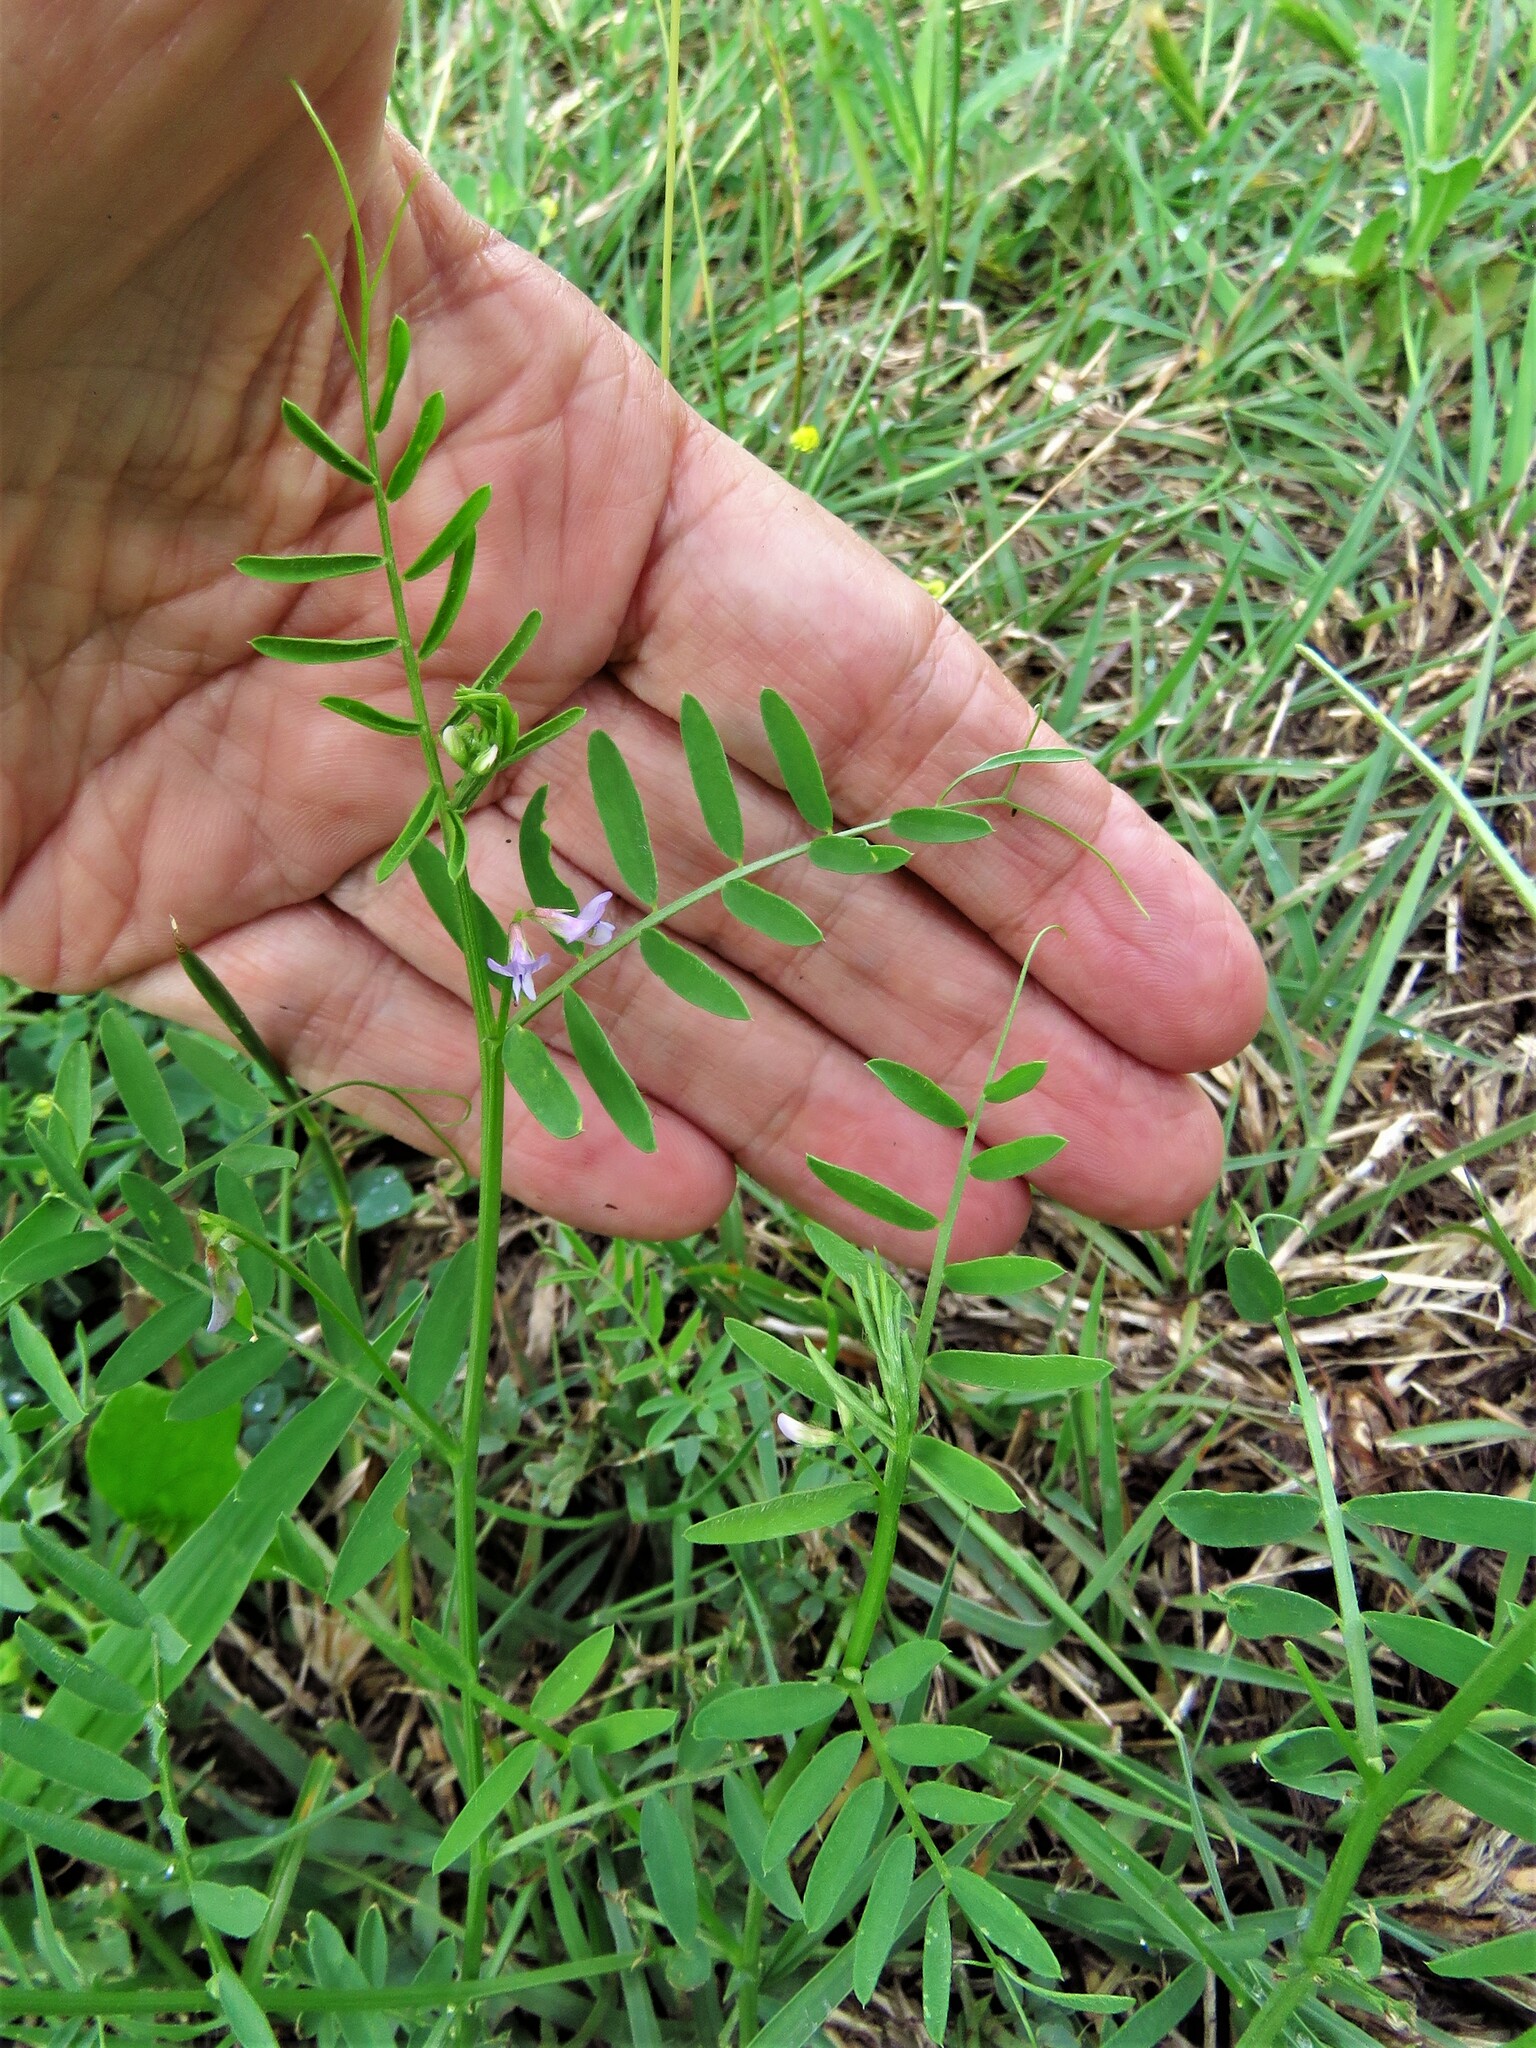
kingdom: Plantae
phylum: Tracheophyta
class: Magnoliopsida
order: Fabales
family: Fabaceae
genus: Vicia
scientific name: Vicia sativa
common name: Garden vetch
